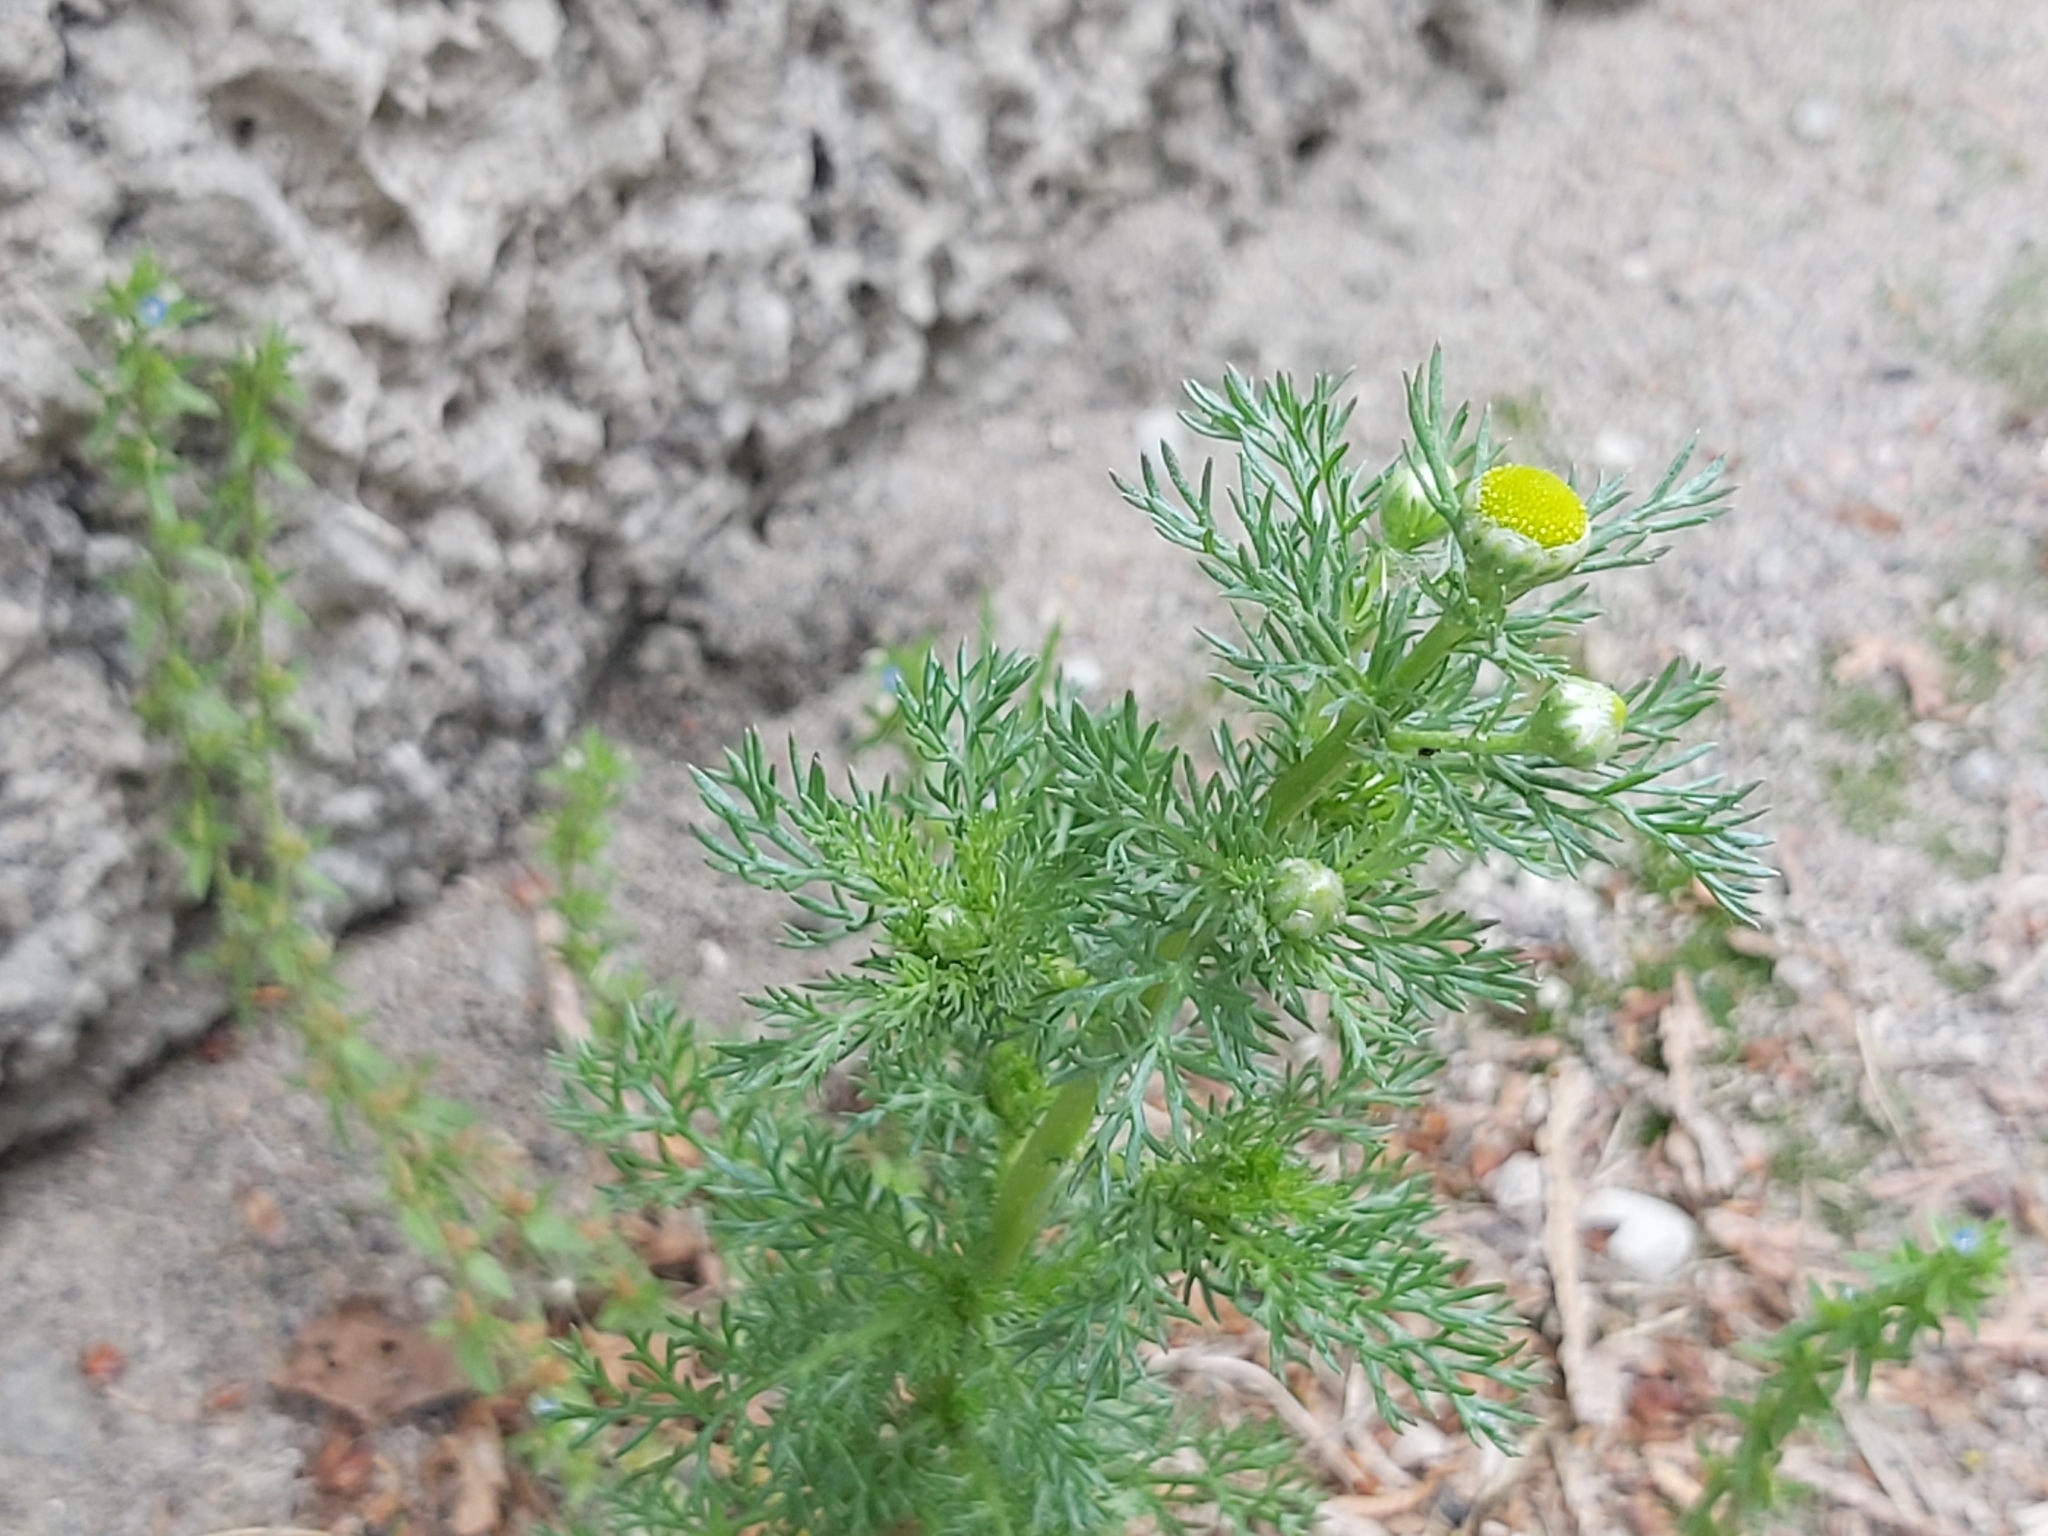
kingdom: Plantae
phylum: Tracheophyta
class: Magnoliopsida
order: Asterales
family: Asteraceae
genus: Matricaria
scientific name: Matricaria discoidea
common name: Disc mayweed
